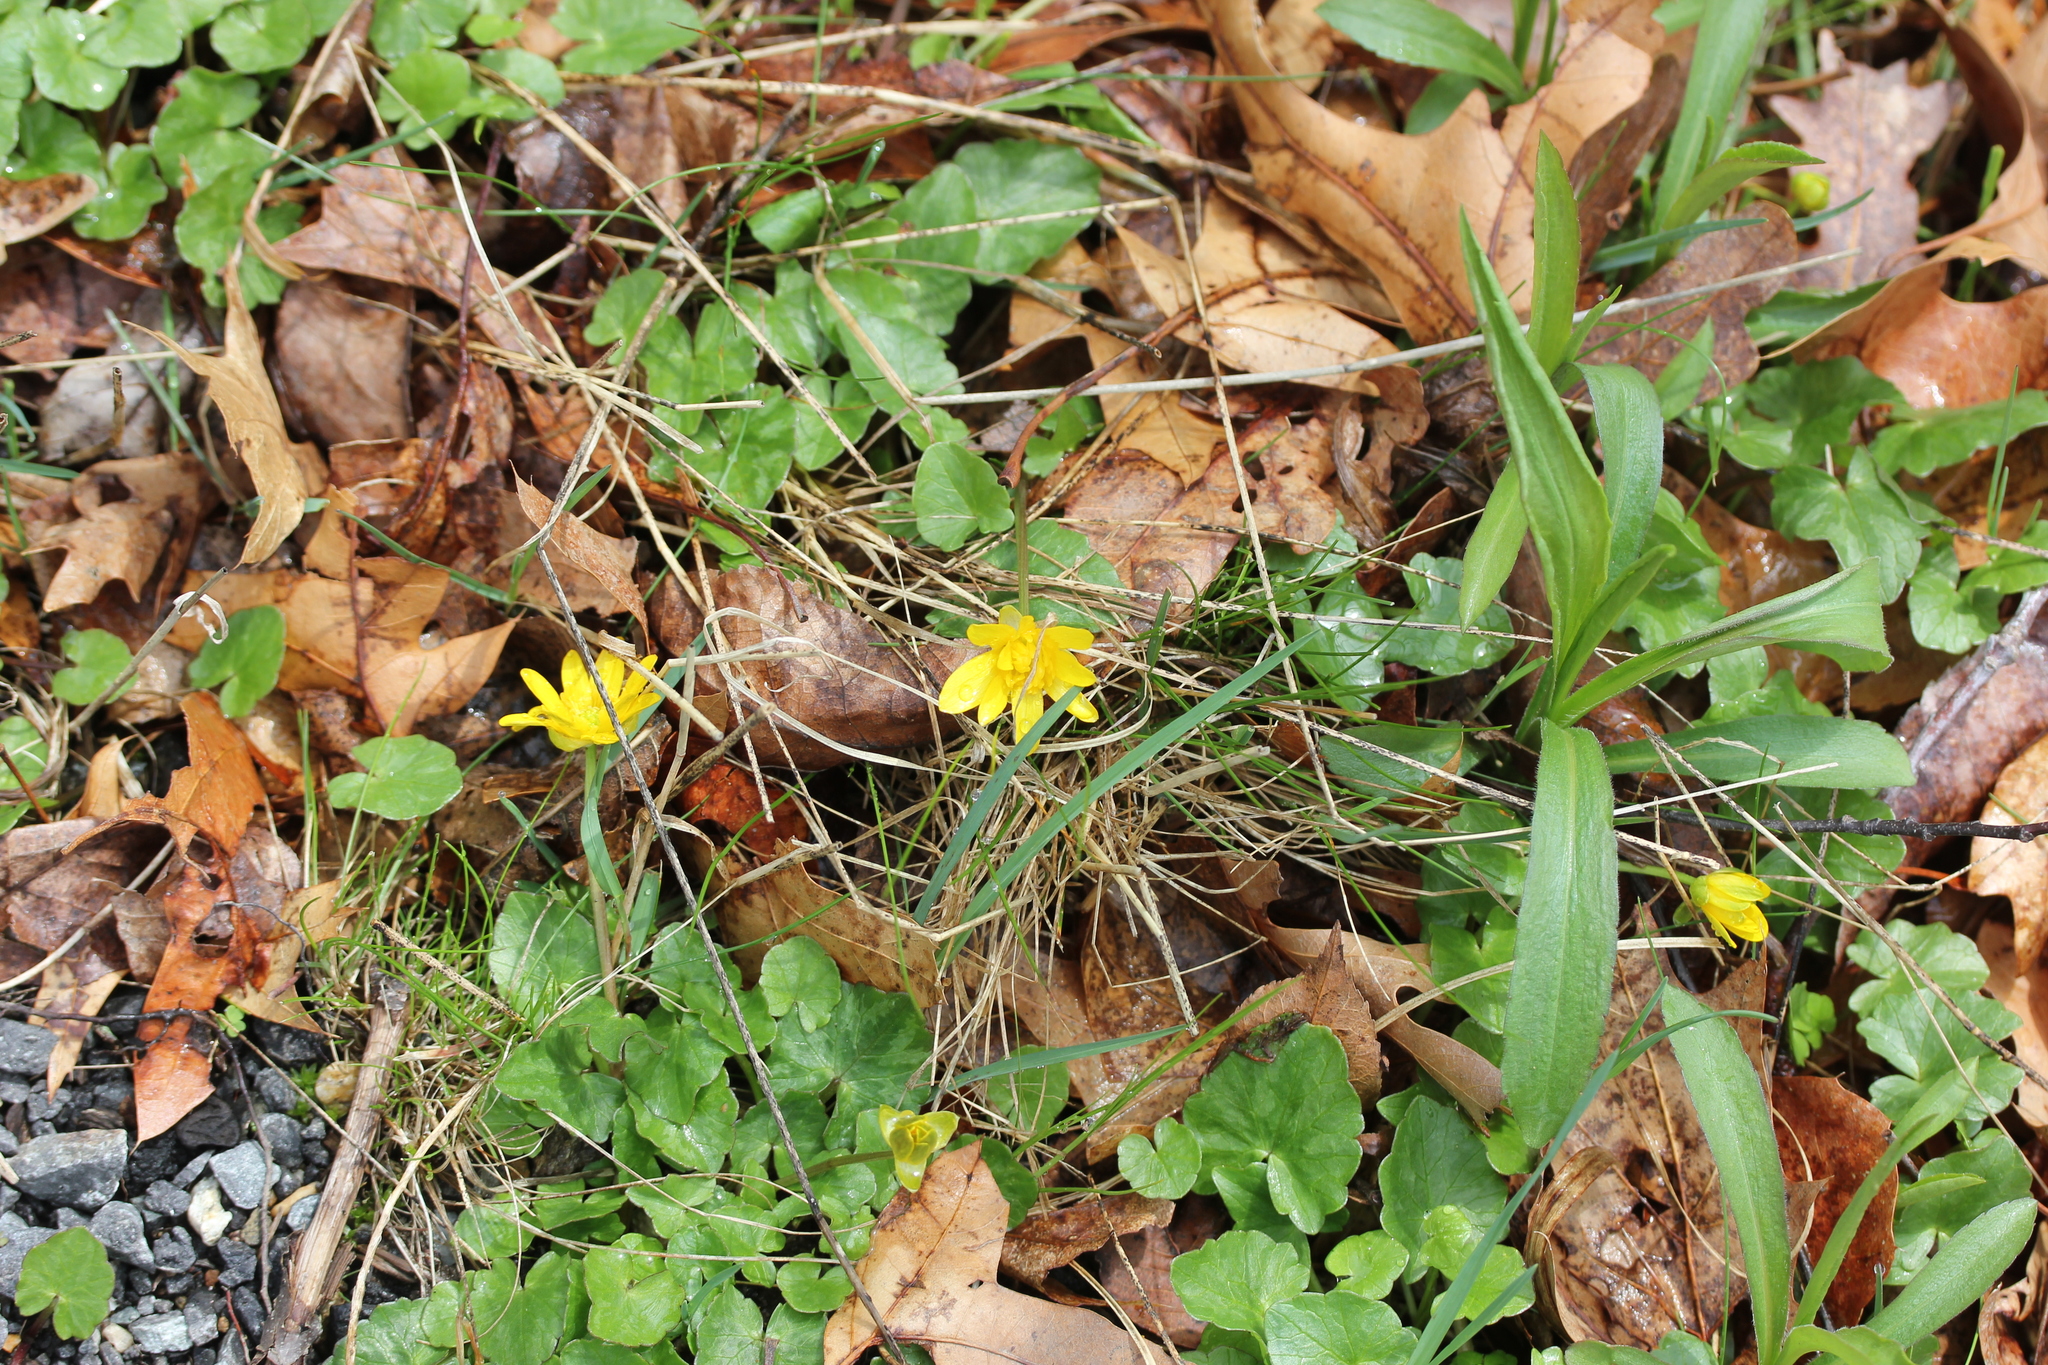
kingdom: Plantae
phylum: Tracheophyta
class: Magnoliopsida
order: Ranunculales
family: Ranunculaceae
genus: Ficaria
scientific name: Ficaria verna
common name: Lesser celandine
